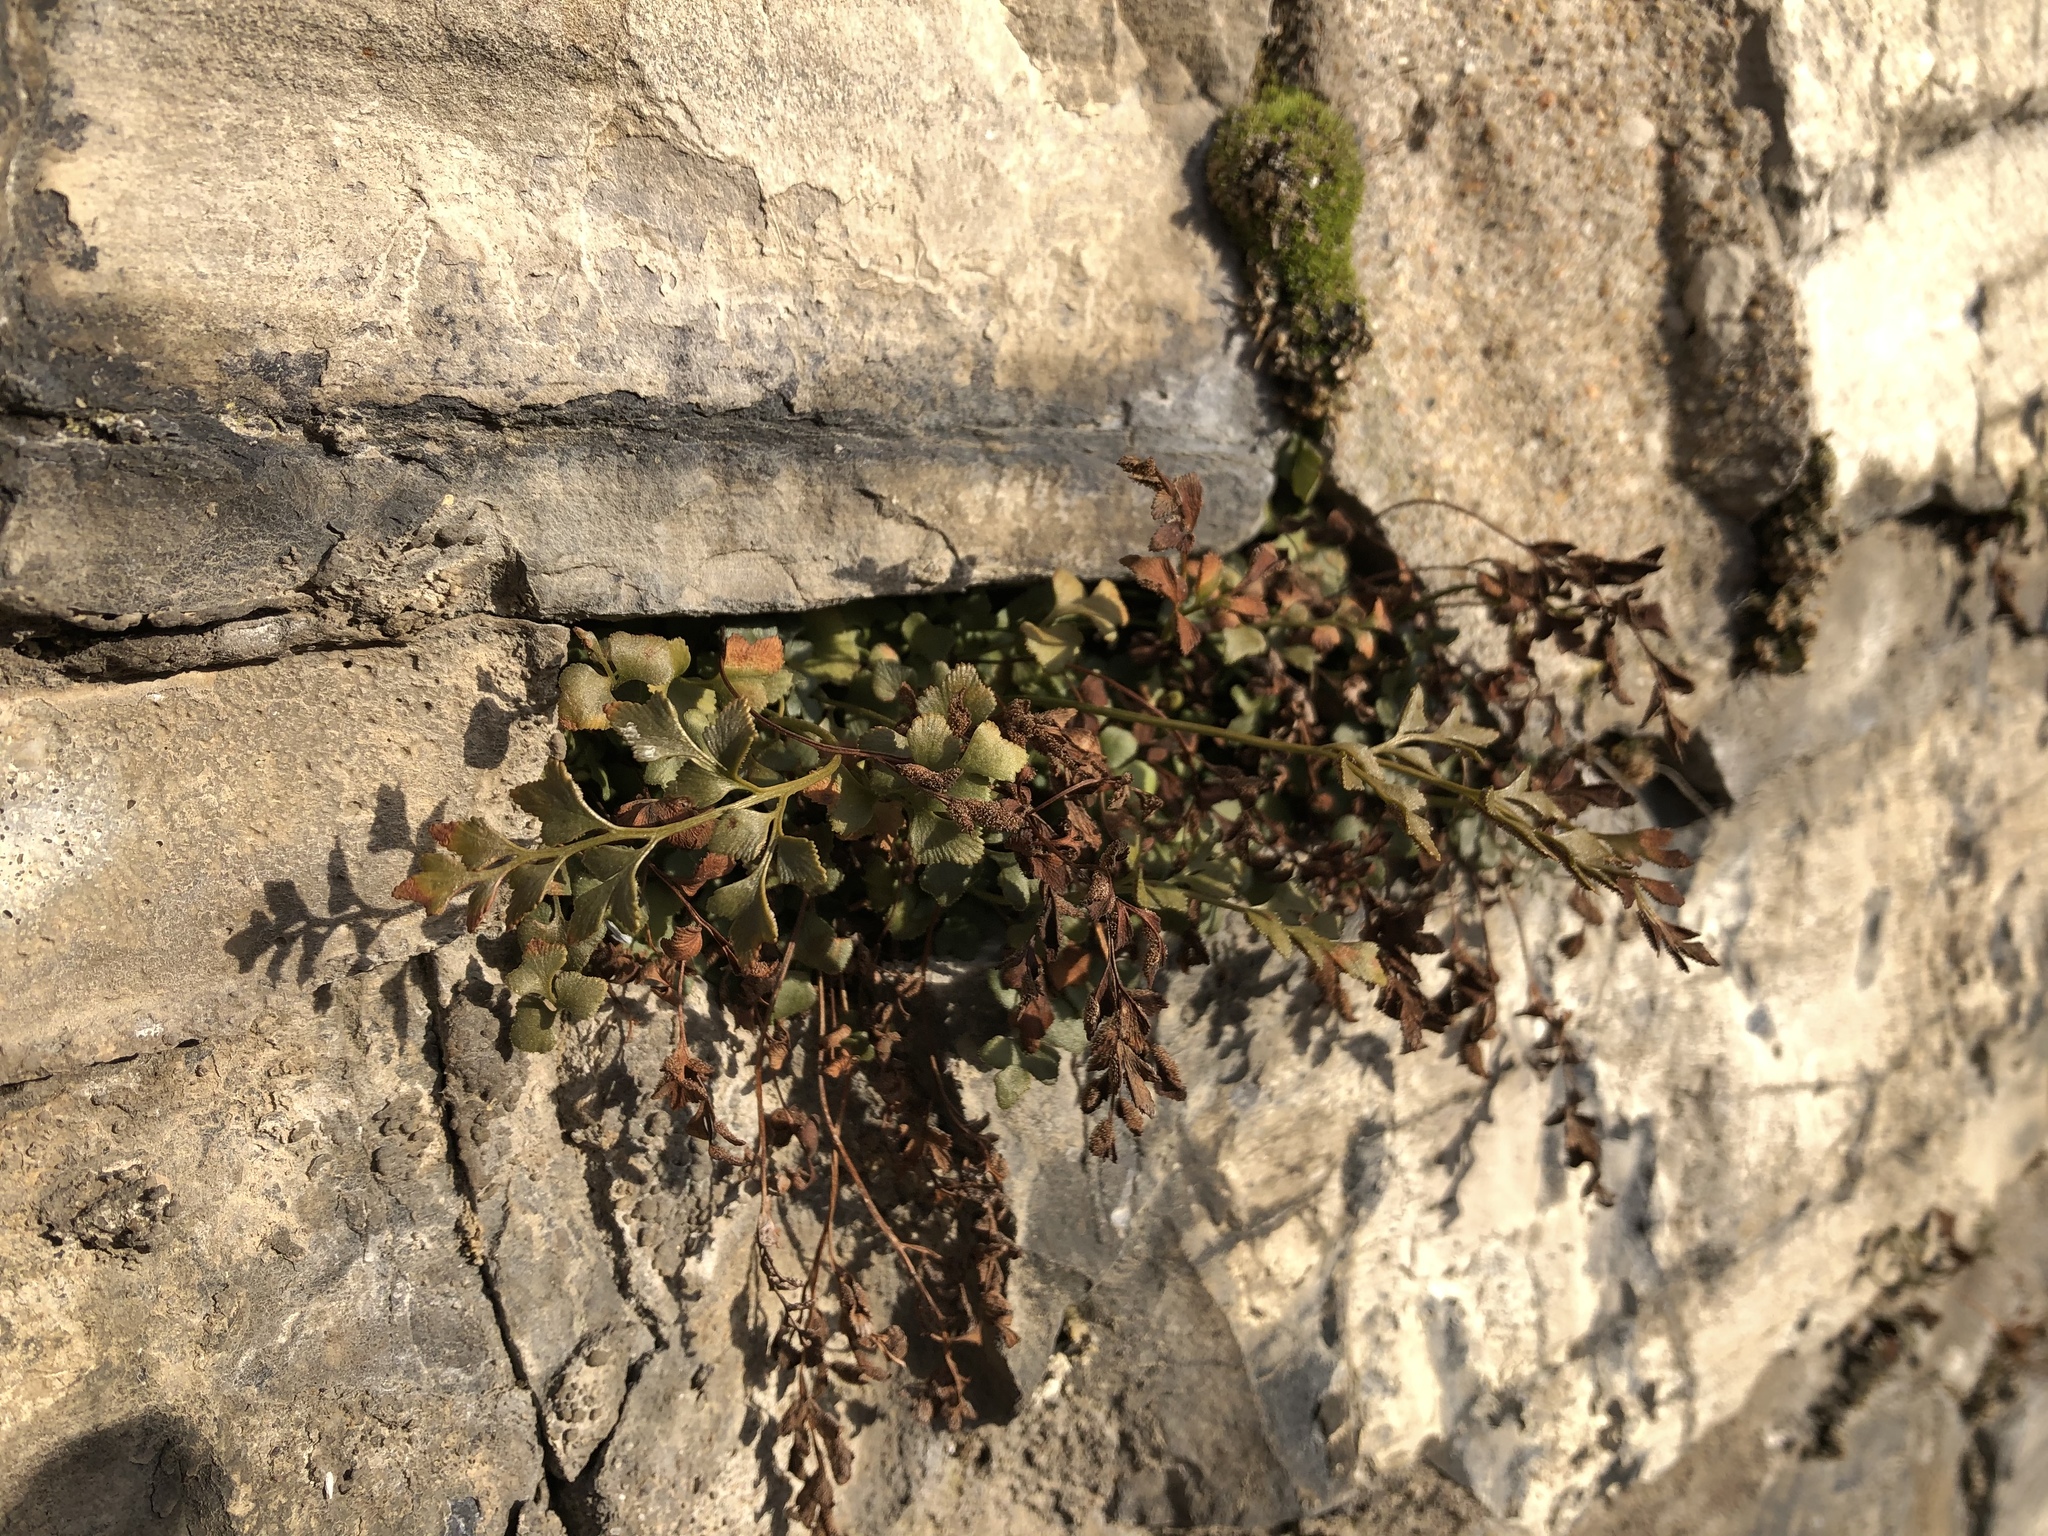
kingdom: Plantae
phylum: Tracheophyta
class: Polypodiopsida
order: Polypodiales
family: Aspleniaceae
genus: Asplenium
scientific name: Asplenium ruta-muraria
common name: Wall-rue
